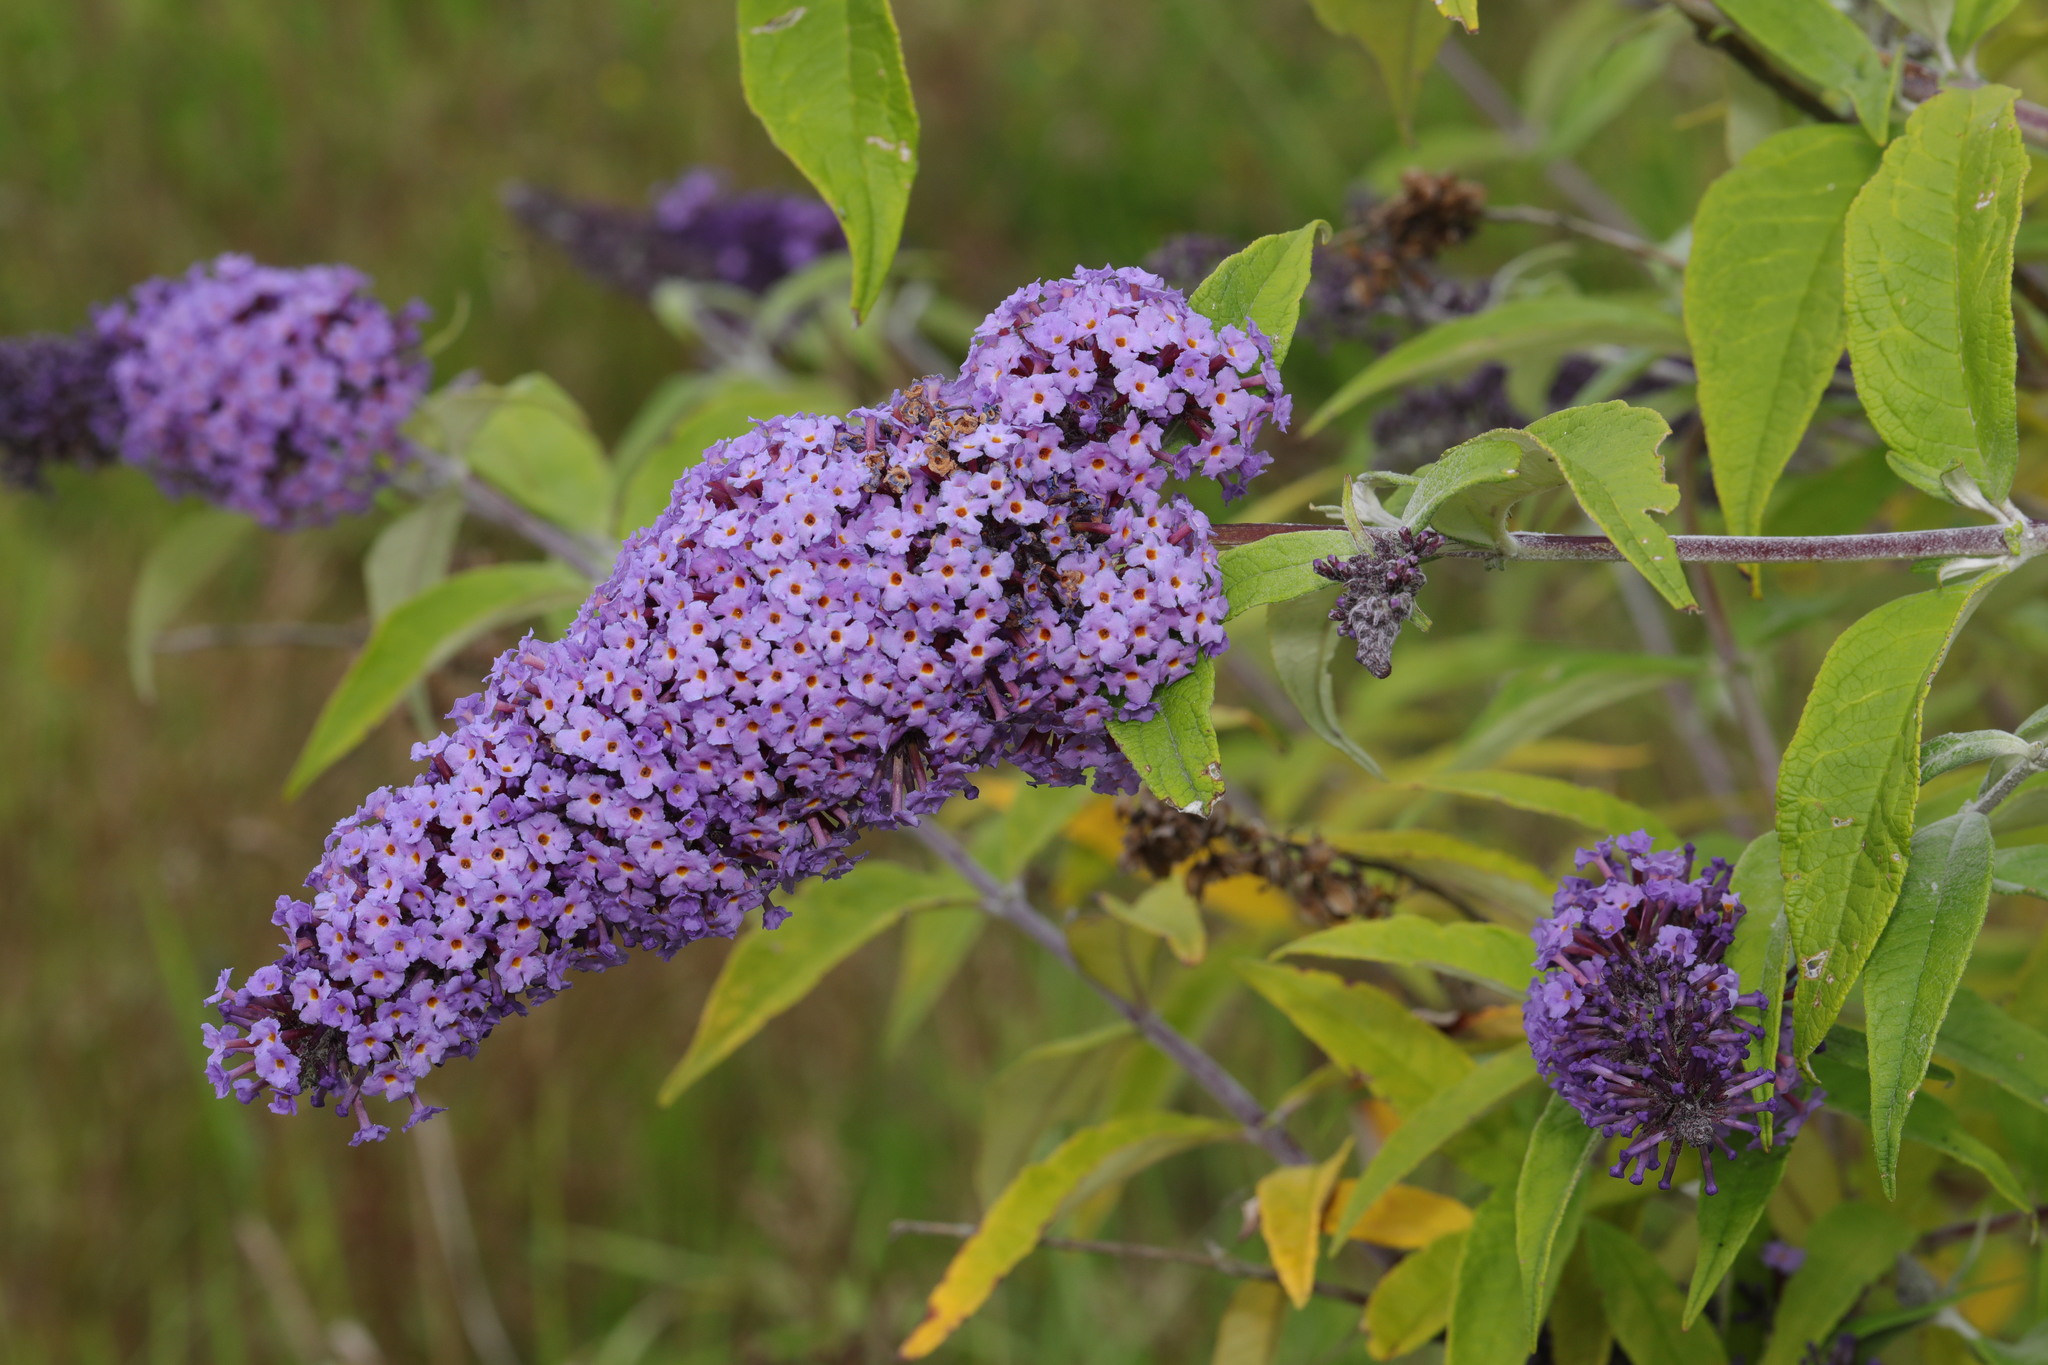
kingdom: Plantae
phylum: Tracheophyta
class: Magnoliopsida
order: Lamiales
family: Scrophulariaceae
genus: Buddleja
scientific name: Buddleja davidii
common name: Butterfly-bush
